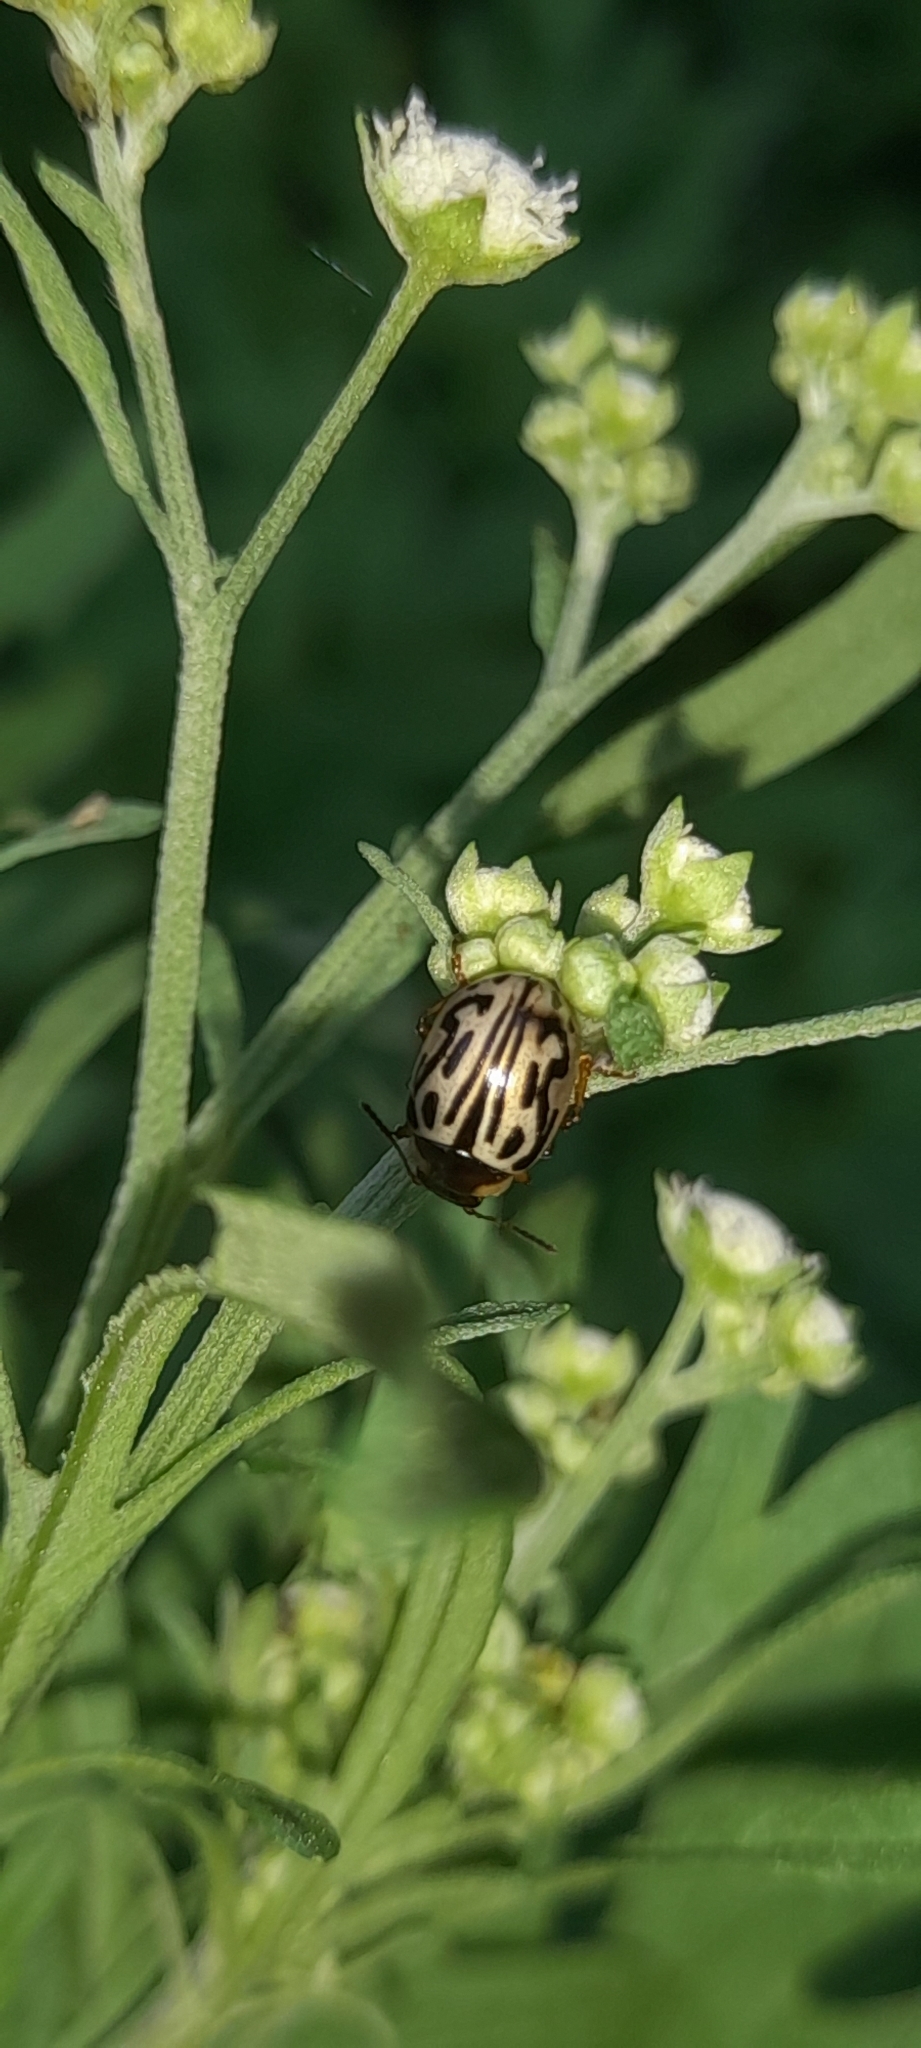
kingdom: Animalia
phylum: Arthropoda
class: Insecta
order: Coleoptera
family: Chrysomelidae
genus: Calligrapha
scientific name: Calligrapha
